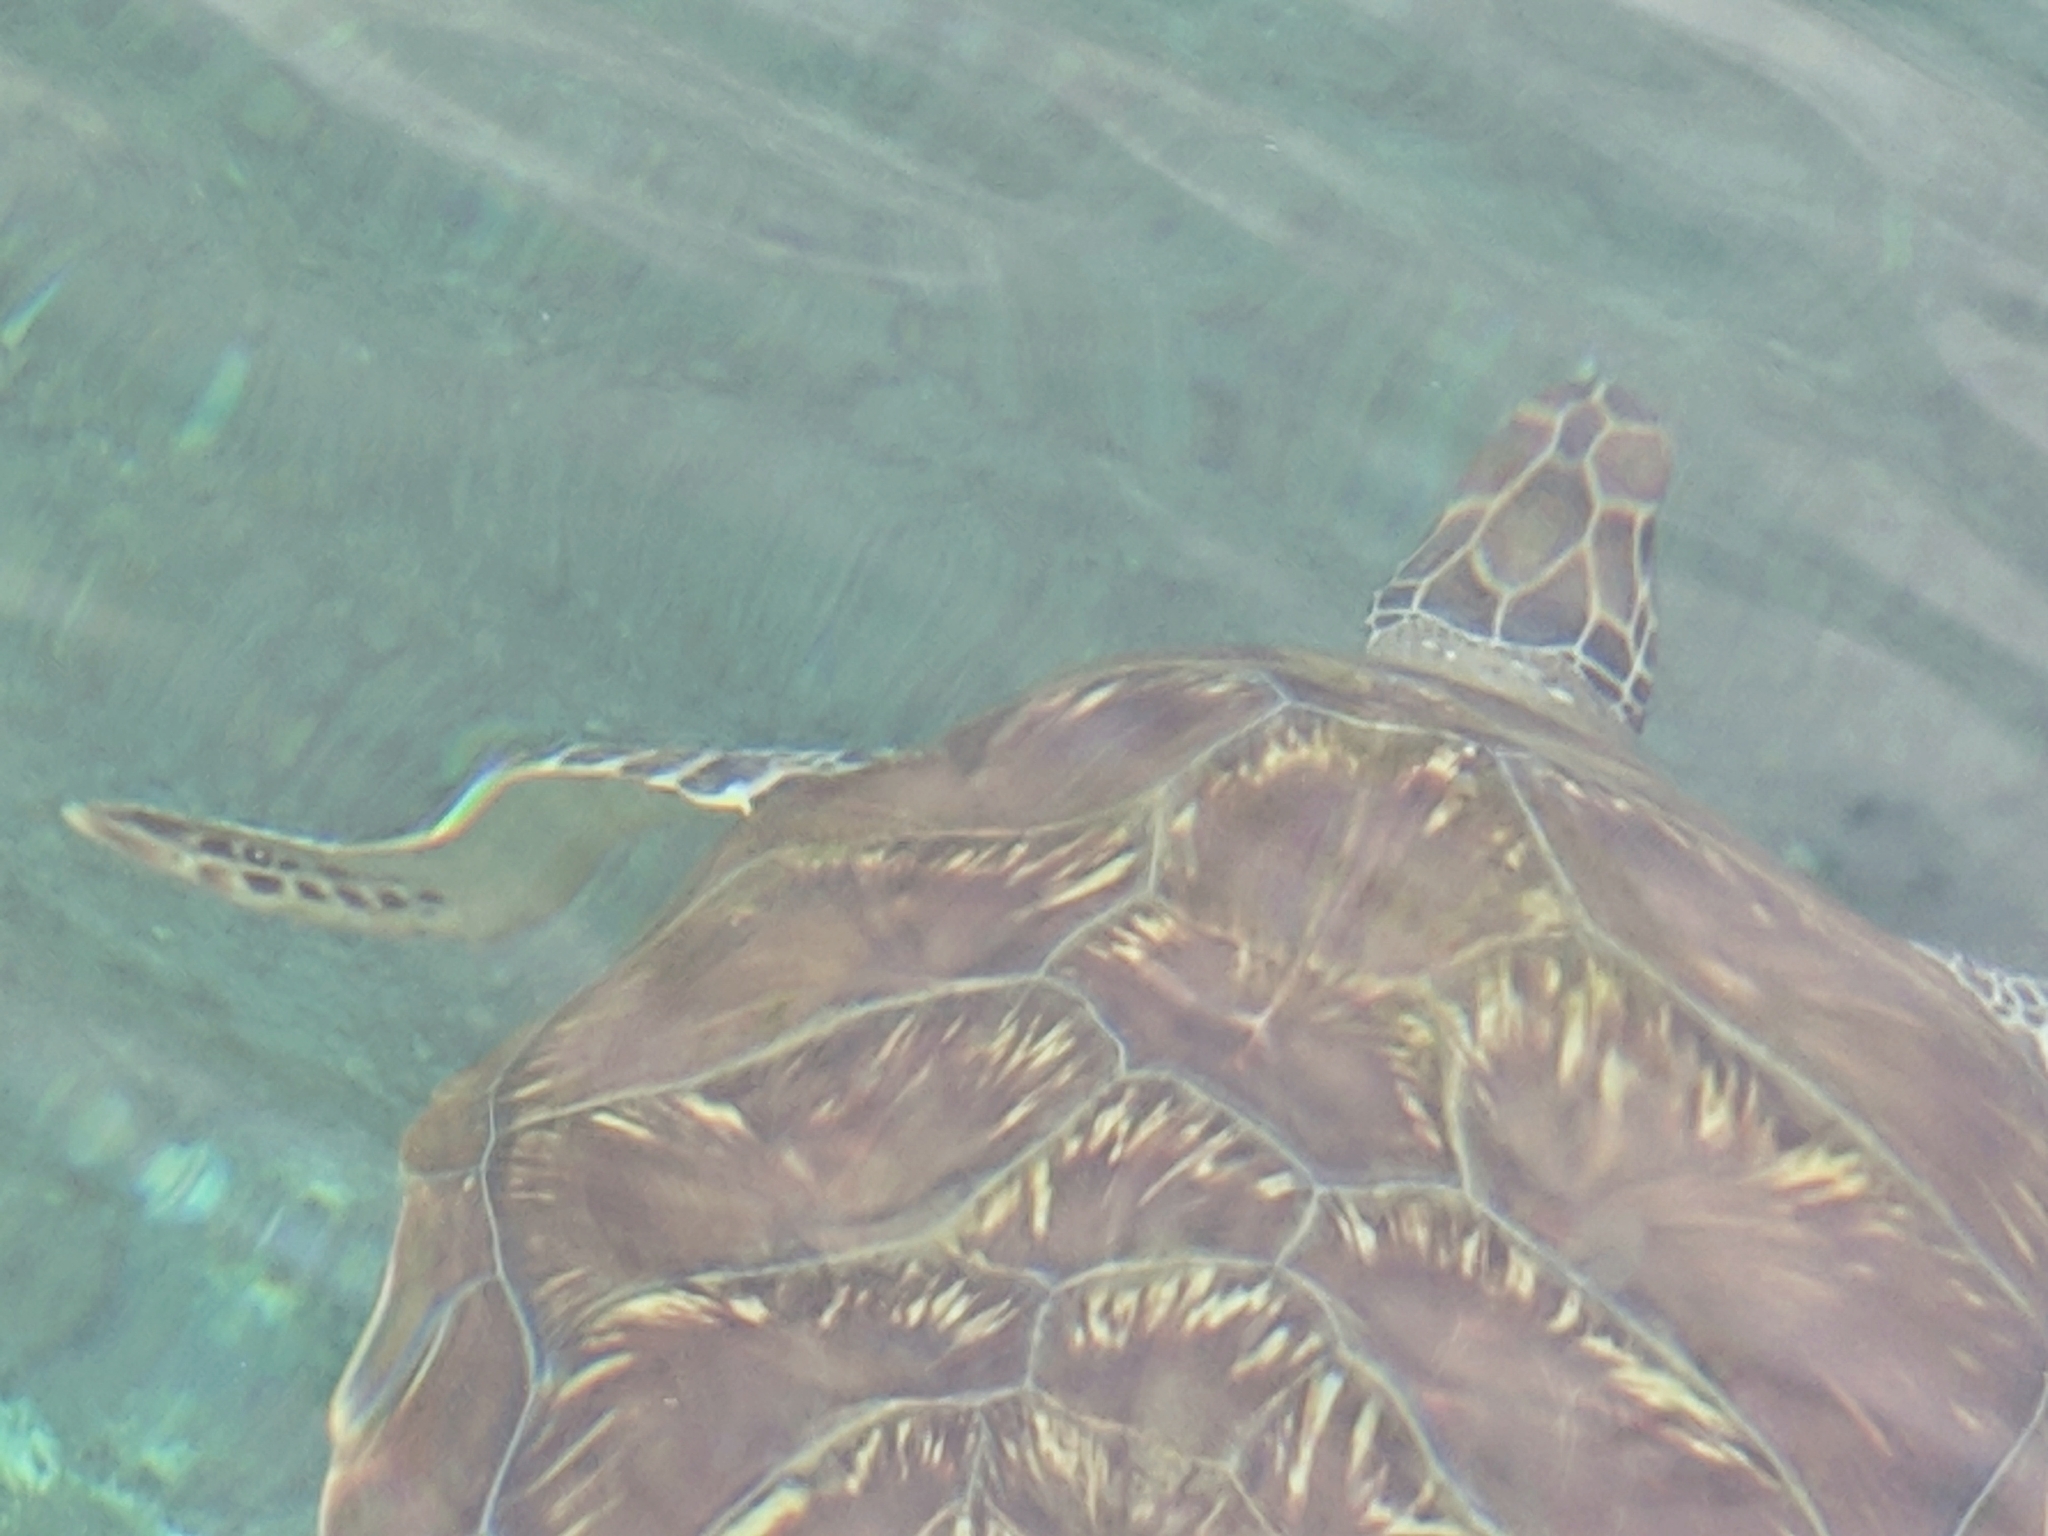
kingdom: Animalia
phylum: Chordata
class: Testudines
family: Cheloniidae
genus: Chelonia
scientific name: Chelonia mydas
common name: Green turtle
